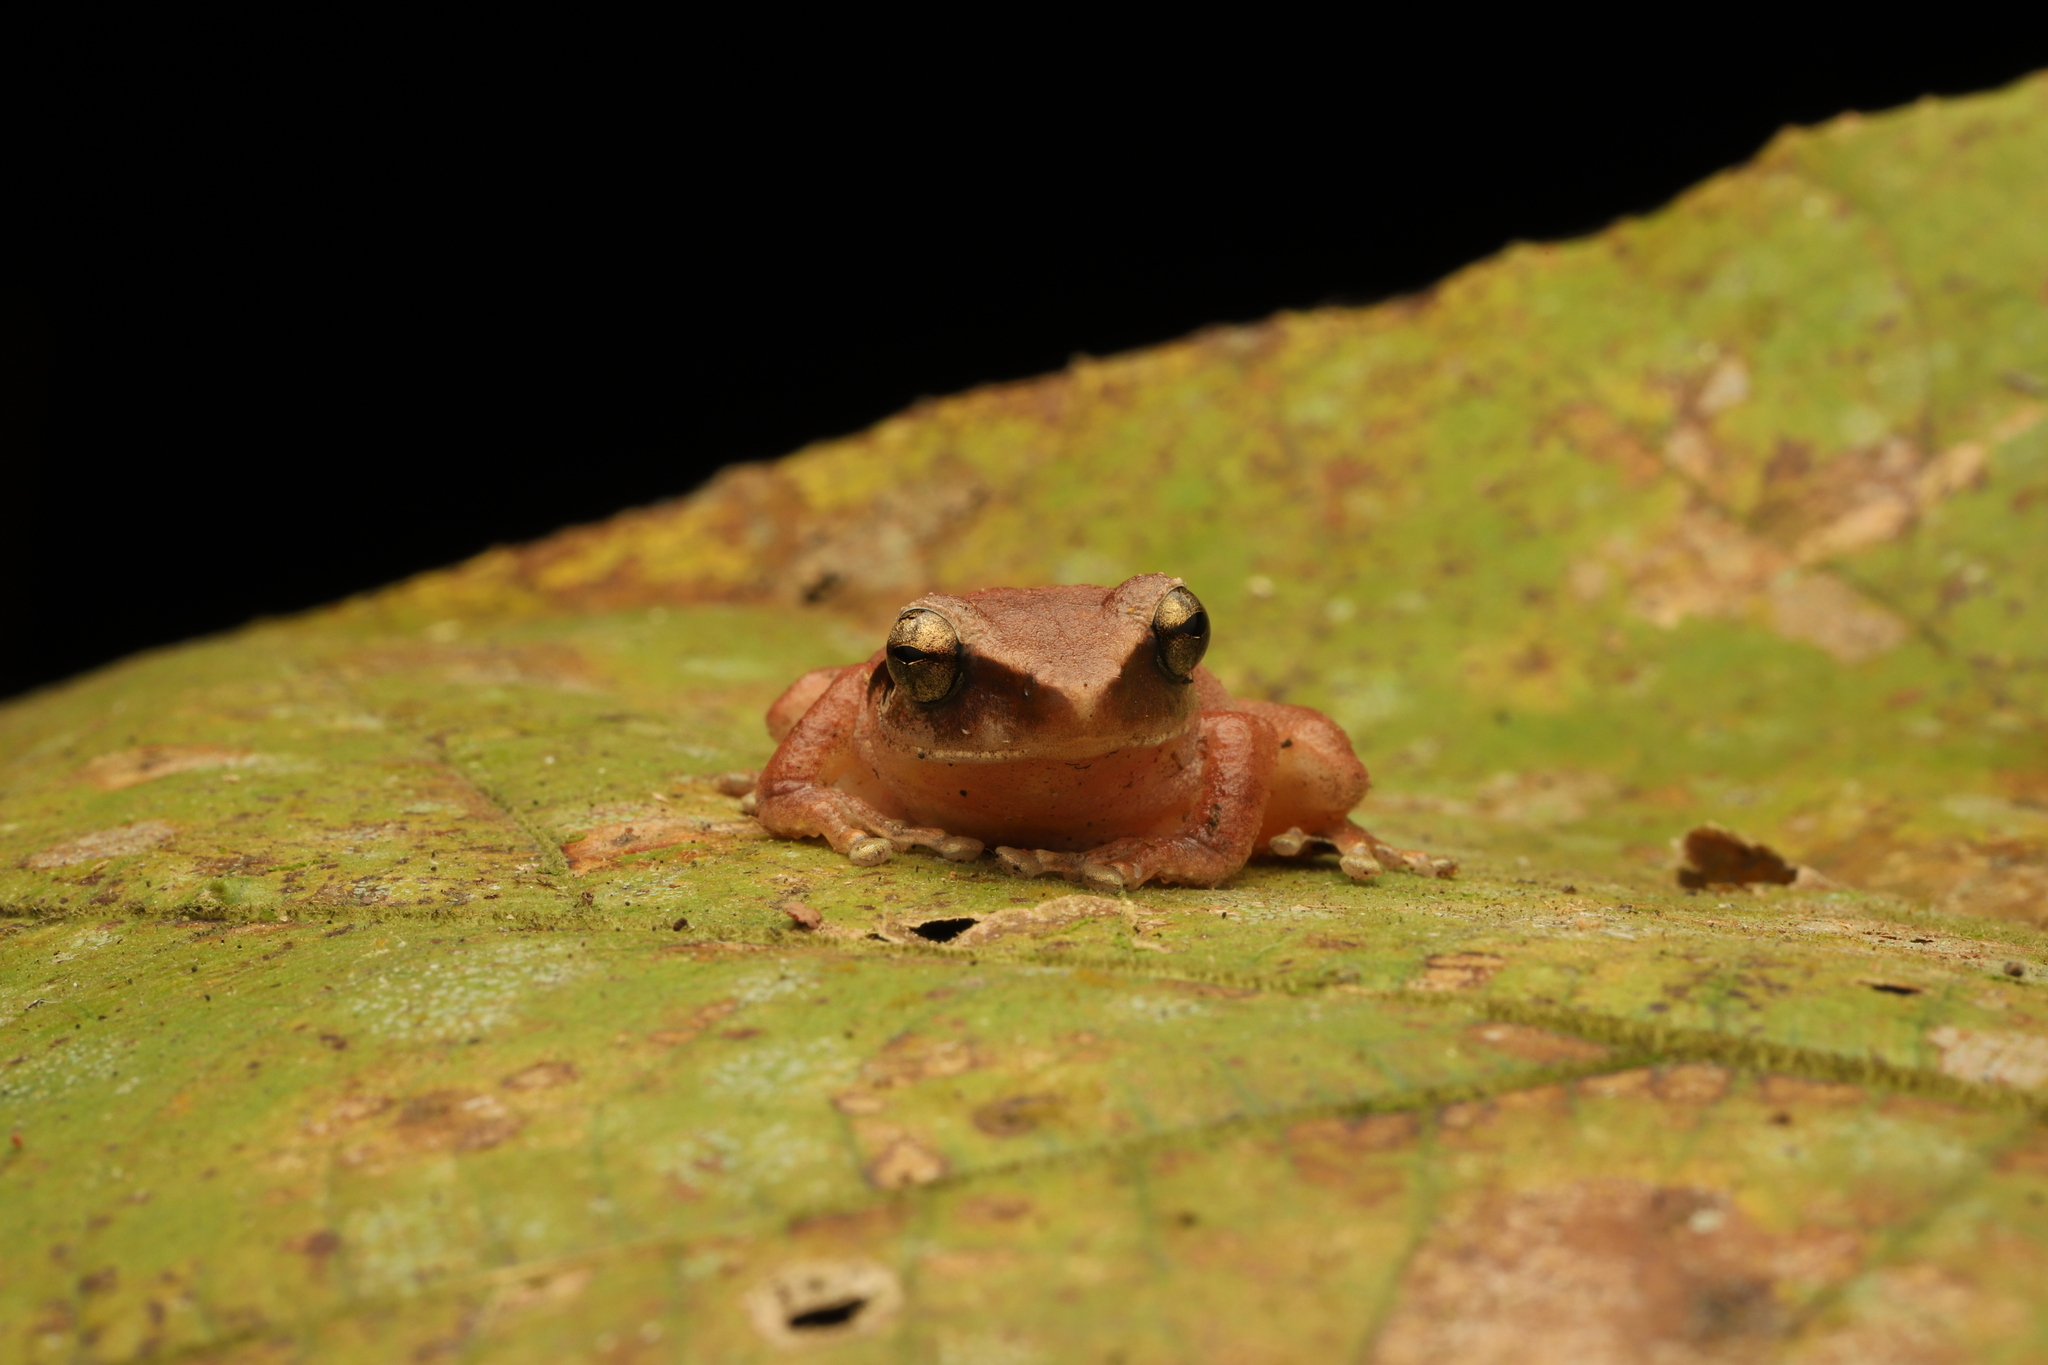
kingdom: Animalia
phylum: Chordata
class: Amphibia
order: Anura
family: Rhacophoridae
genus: Pseudophilautus
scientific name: Pseudophilautus amboli
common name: Amboli bush frog
